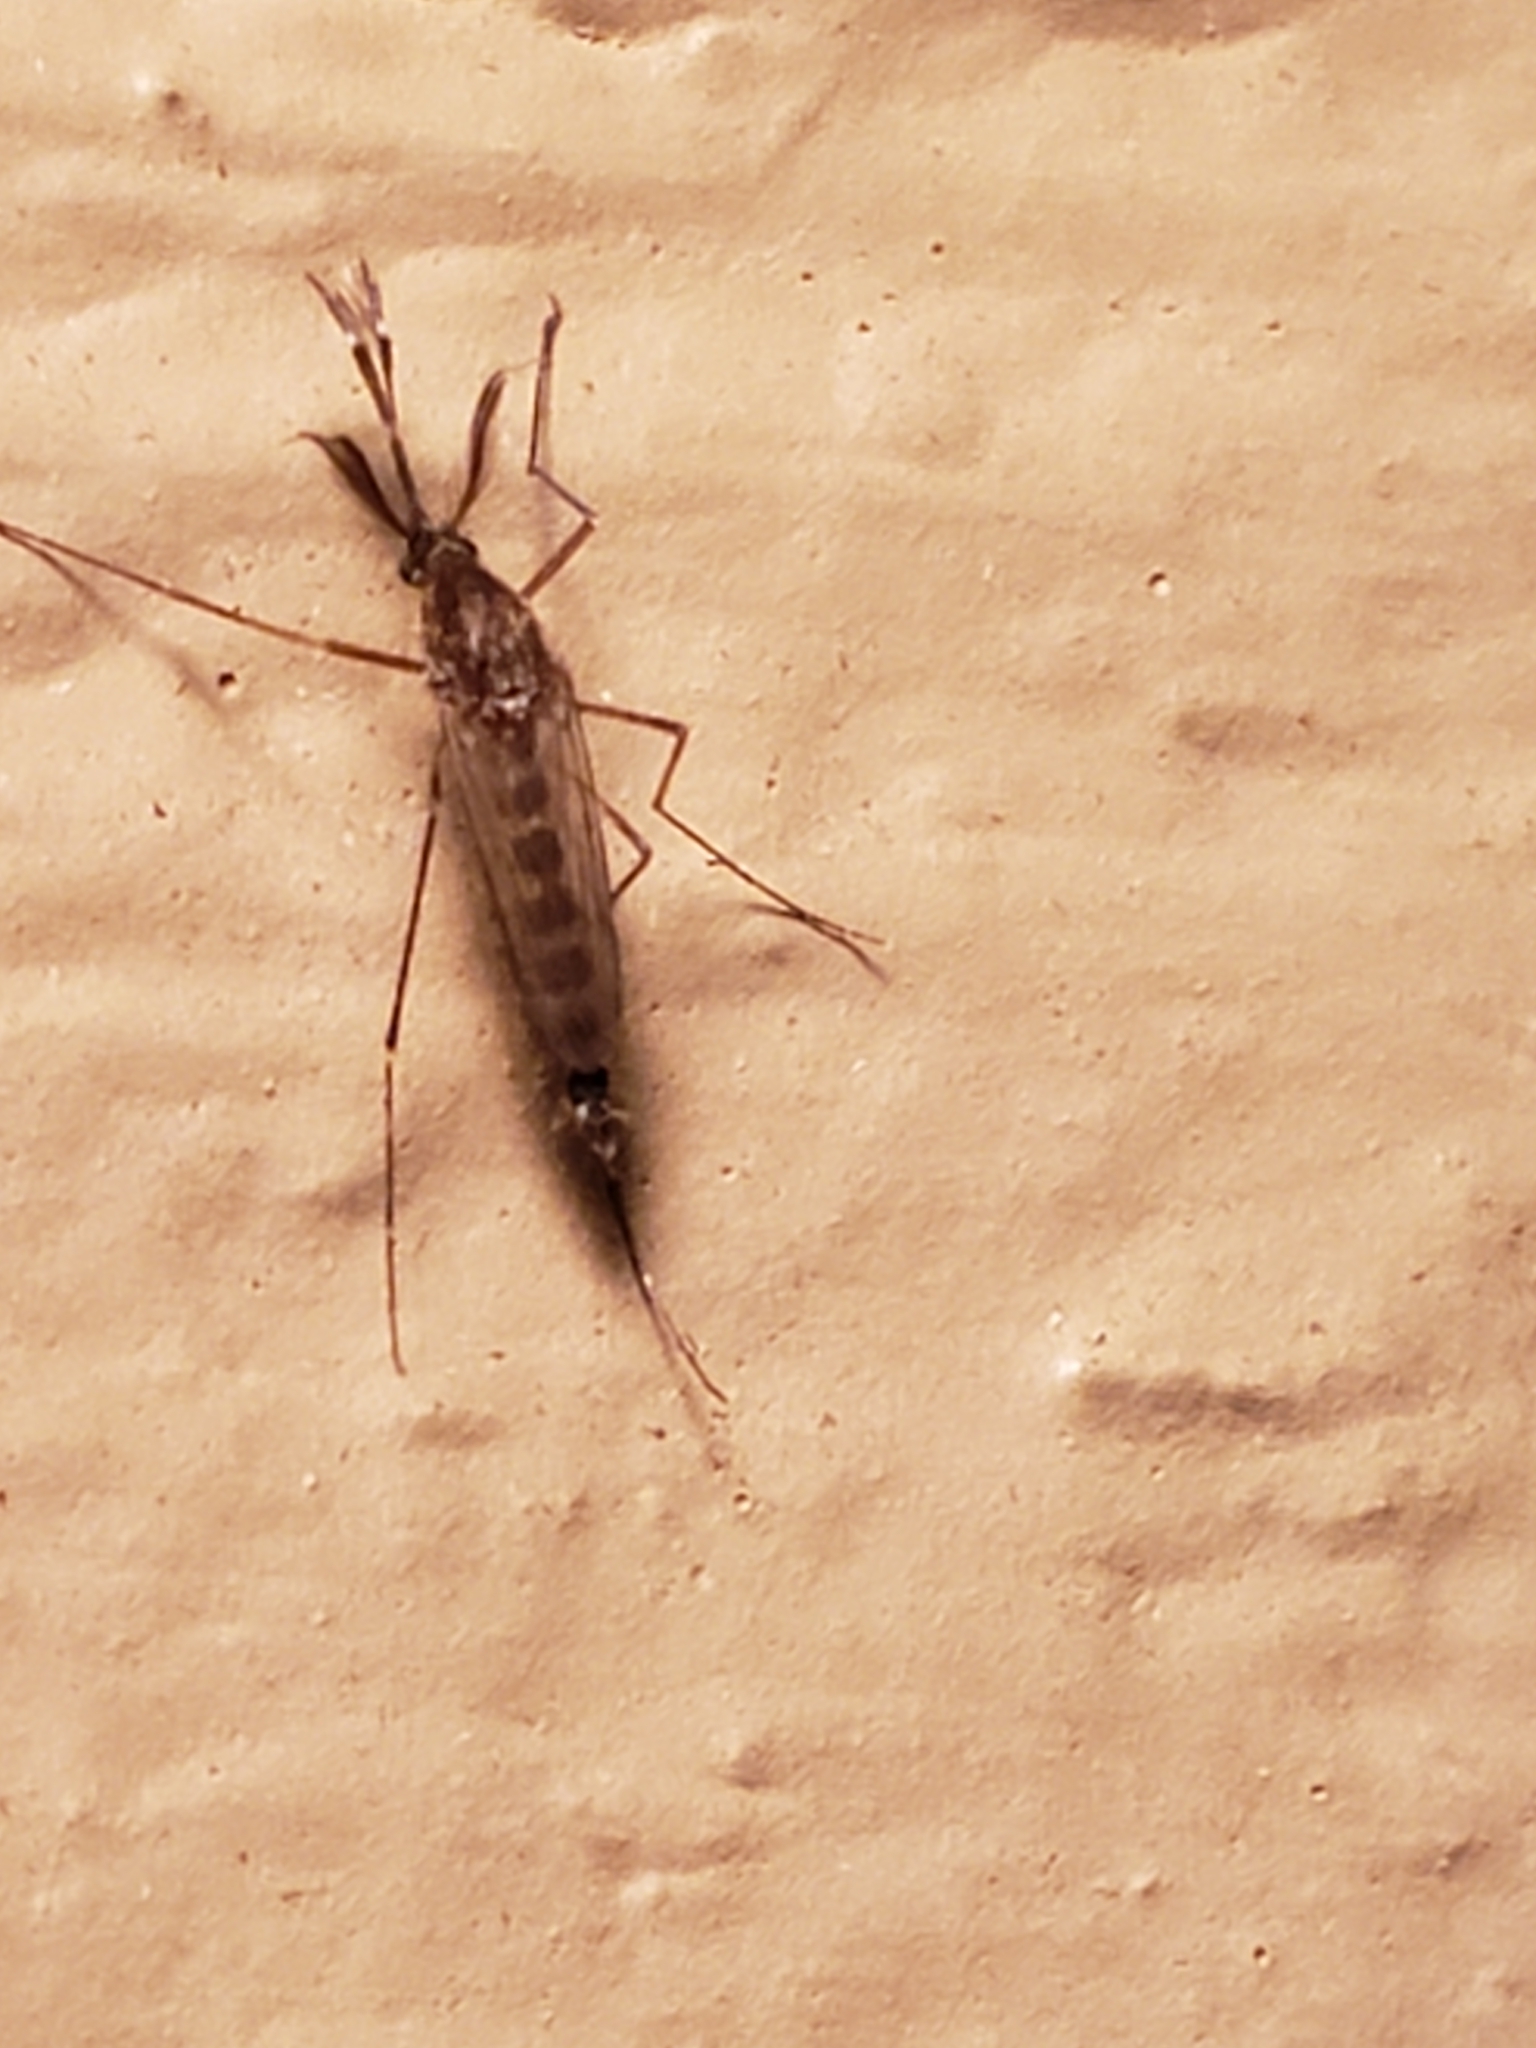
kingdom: Animalia
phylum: Arthropoda
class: Insecta
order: Diptera
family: Culicidae
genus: Aedes
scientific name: Aedes vexans
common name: Inland floodwater mosquito
